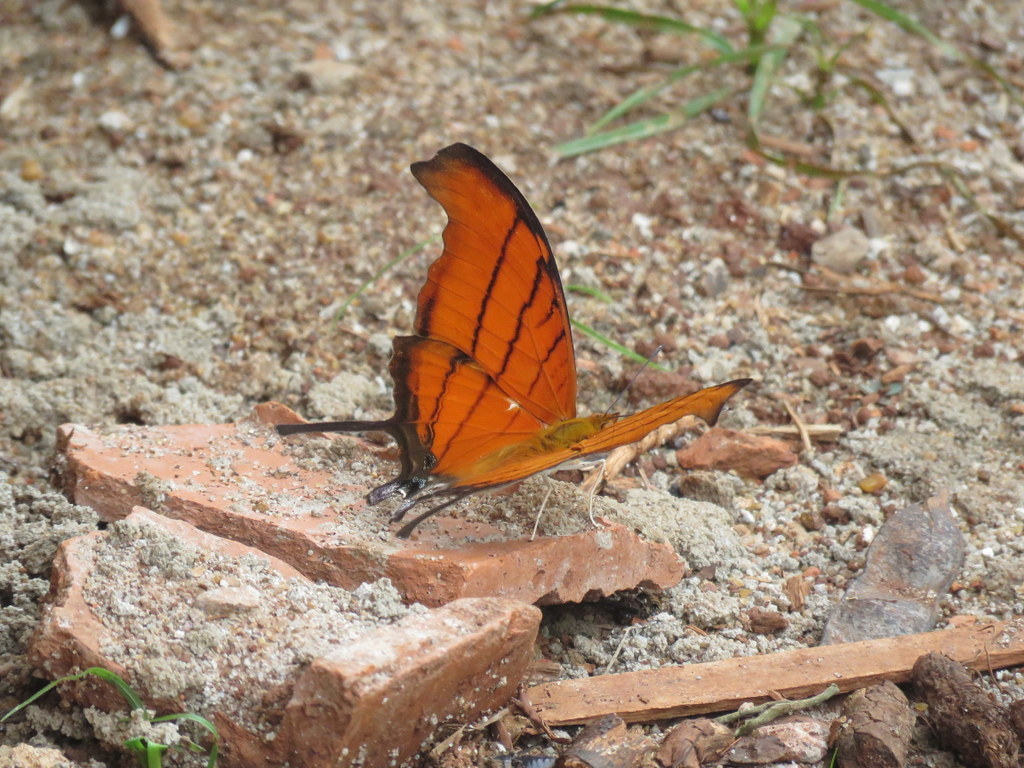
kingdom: Animalia
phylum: Arthropoda
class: Insecta
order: Lepidoptera
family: Nymphalidae
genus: Marpesia
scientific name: Marpesia petreus
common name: Red dagger wing
